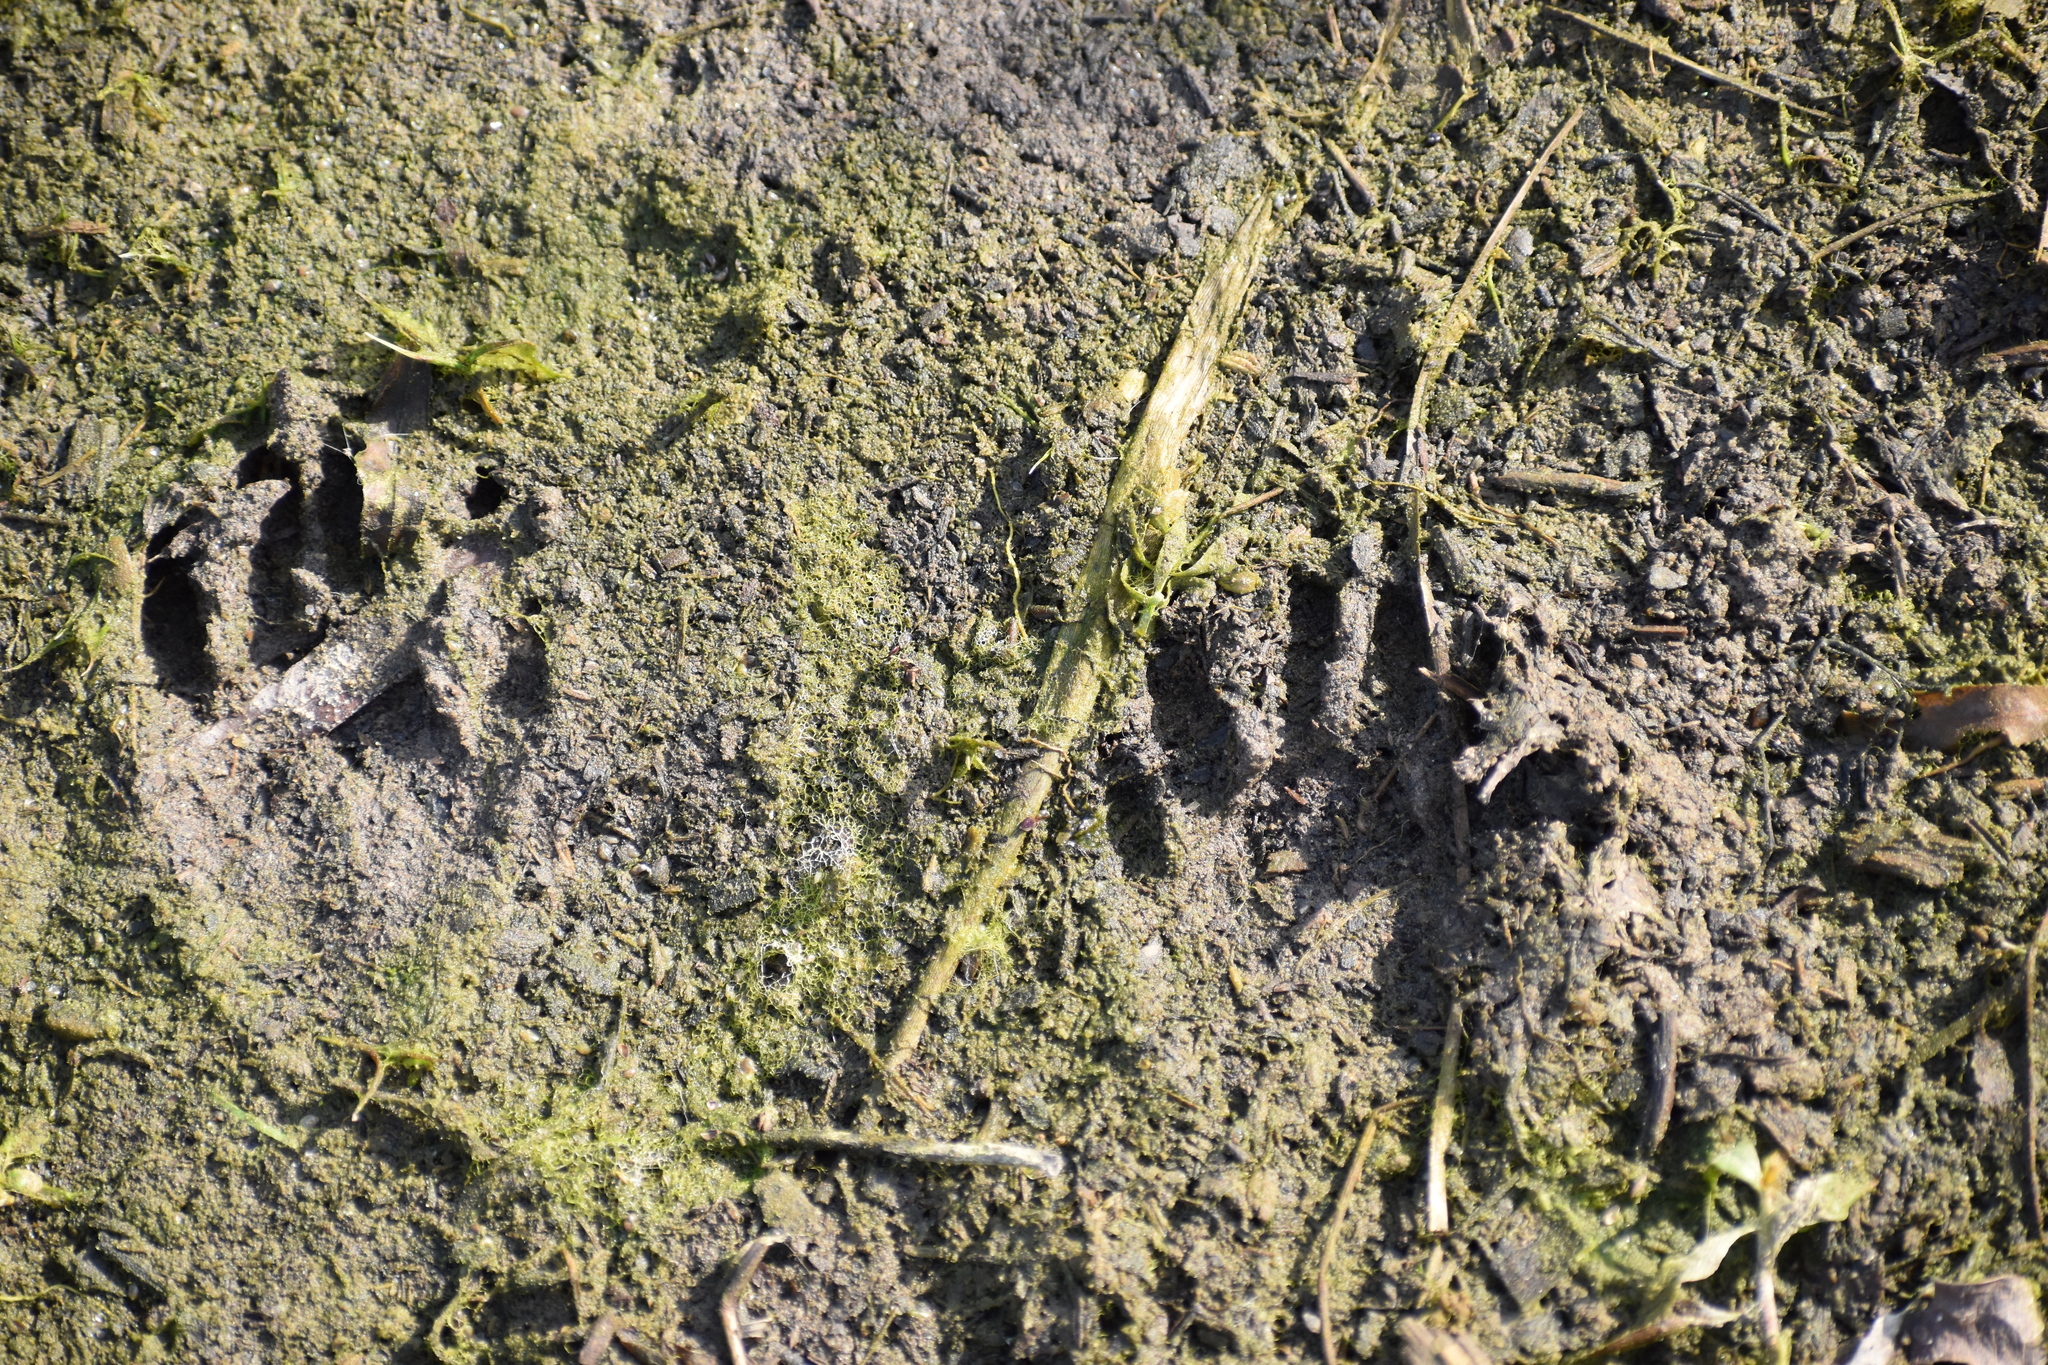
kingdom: Animalia
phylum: Chordata
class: Mammalia
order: Carnivora
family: Procyonidae
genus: Procyon
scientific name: Procyon lotor
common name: Raccoon
